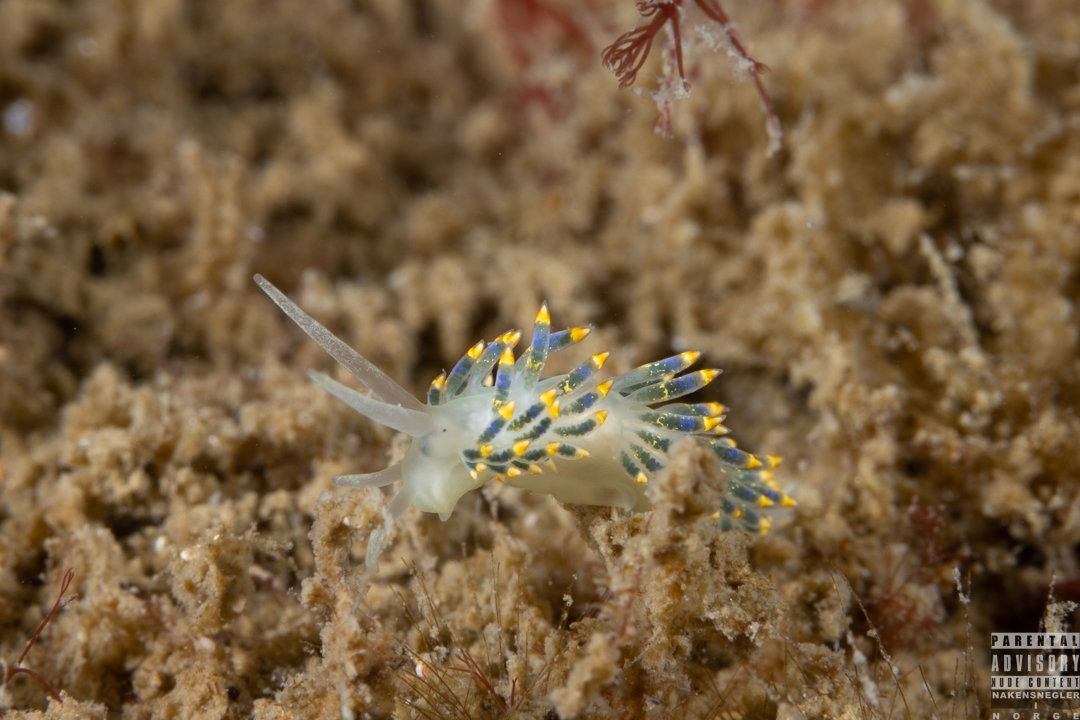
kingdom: Animalia
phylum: Mollusca
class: Gastropoda
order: Nudibranchia
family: Trinchesiidae
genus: Trinchesia
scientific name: Trinchesia cuanensis
